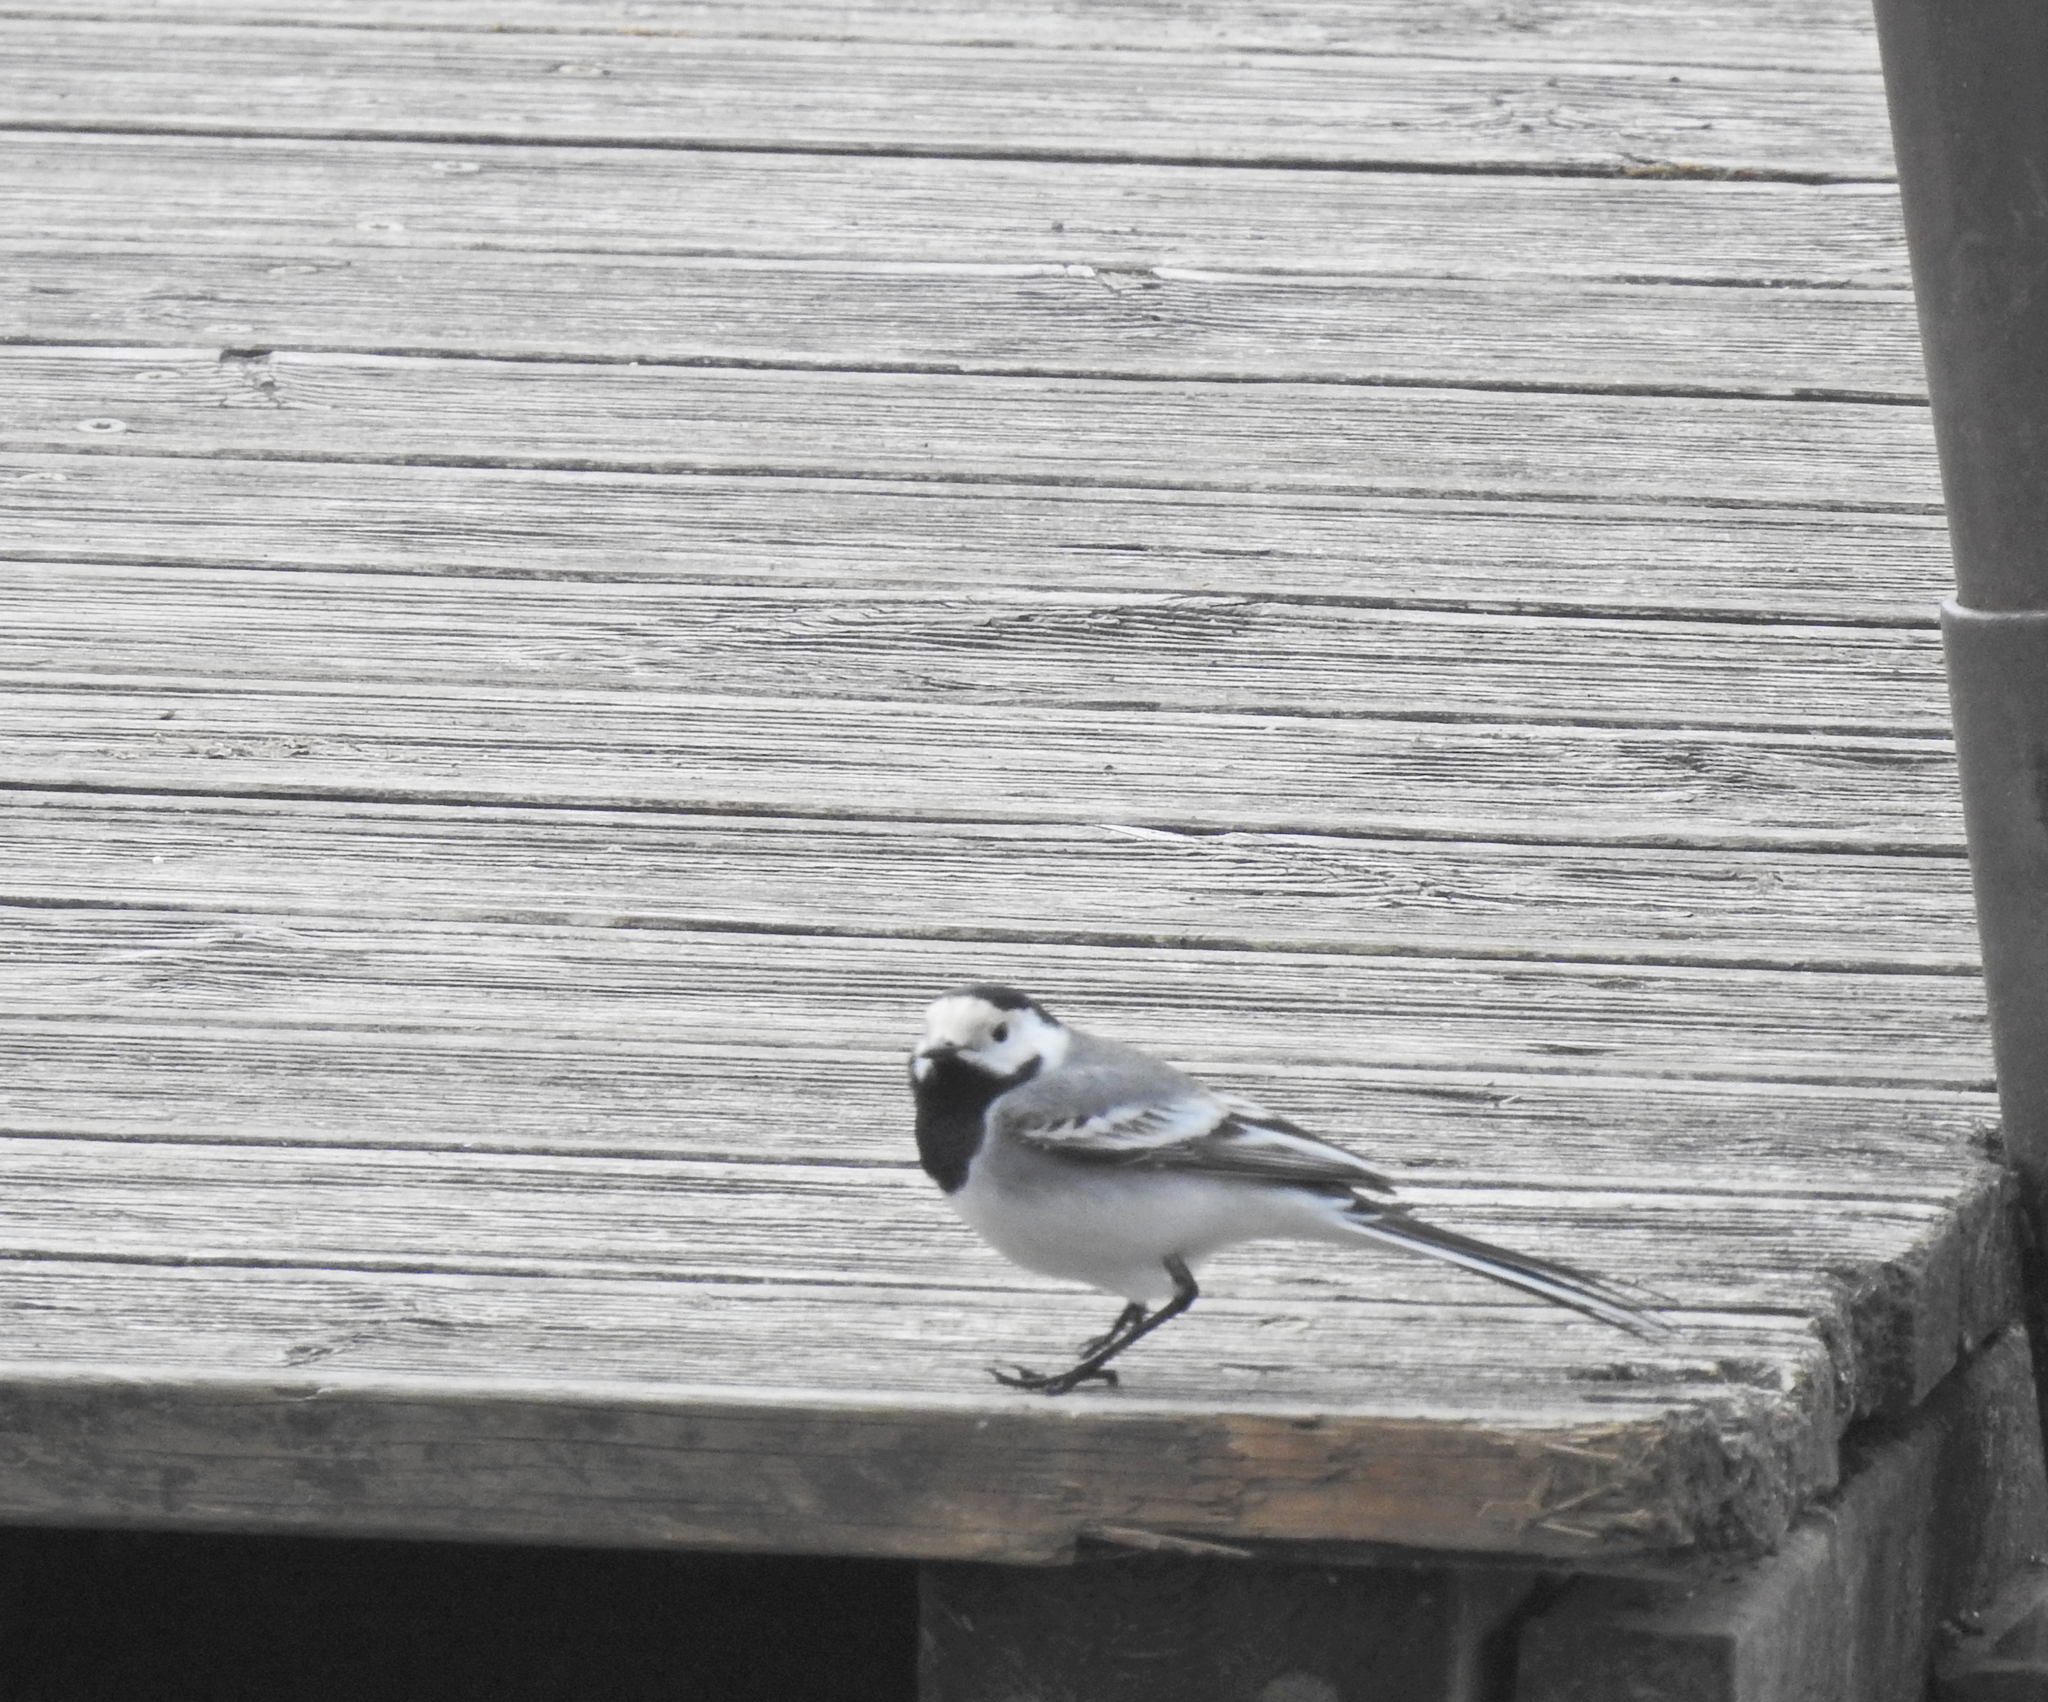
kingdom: Animalia
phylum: Chordata
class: Aves
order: Passeriformes
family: Motacillidae
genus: Motacilla
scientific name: Motacilla alba
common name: White wagtail
